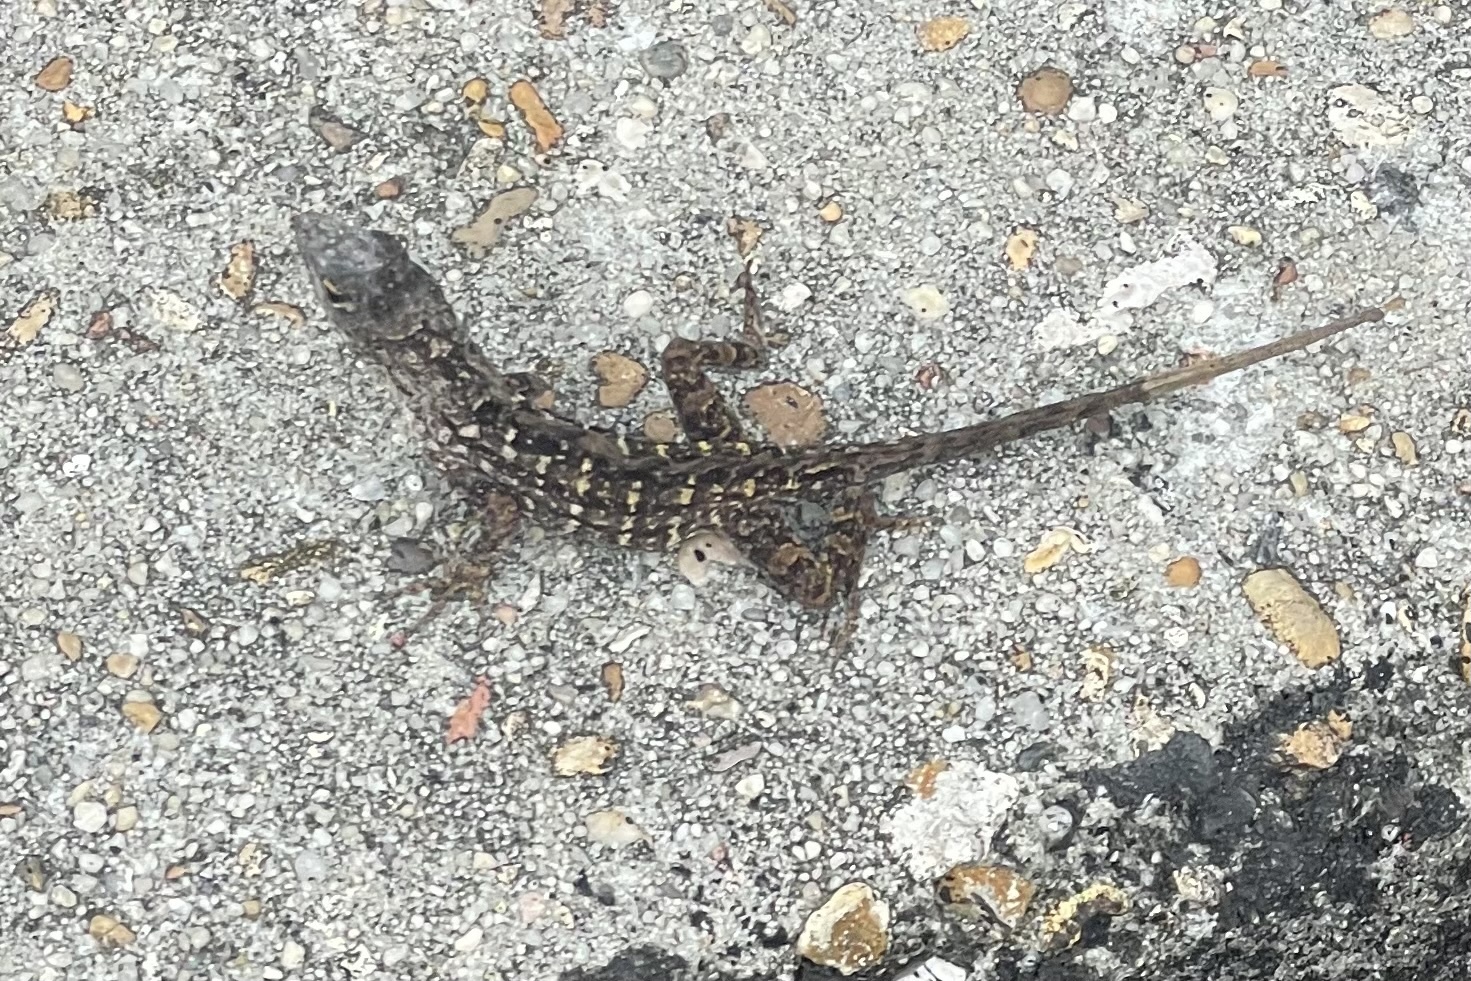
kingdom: Animalia
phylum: Chordata
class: Squamata
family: Dactyloidae
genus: Anolis
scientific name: Anolis sagrei
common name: Brown anole
